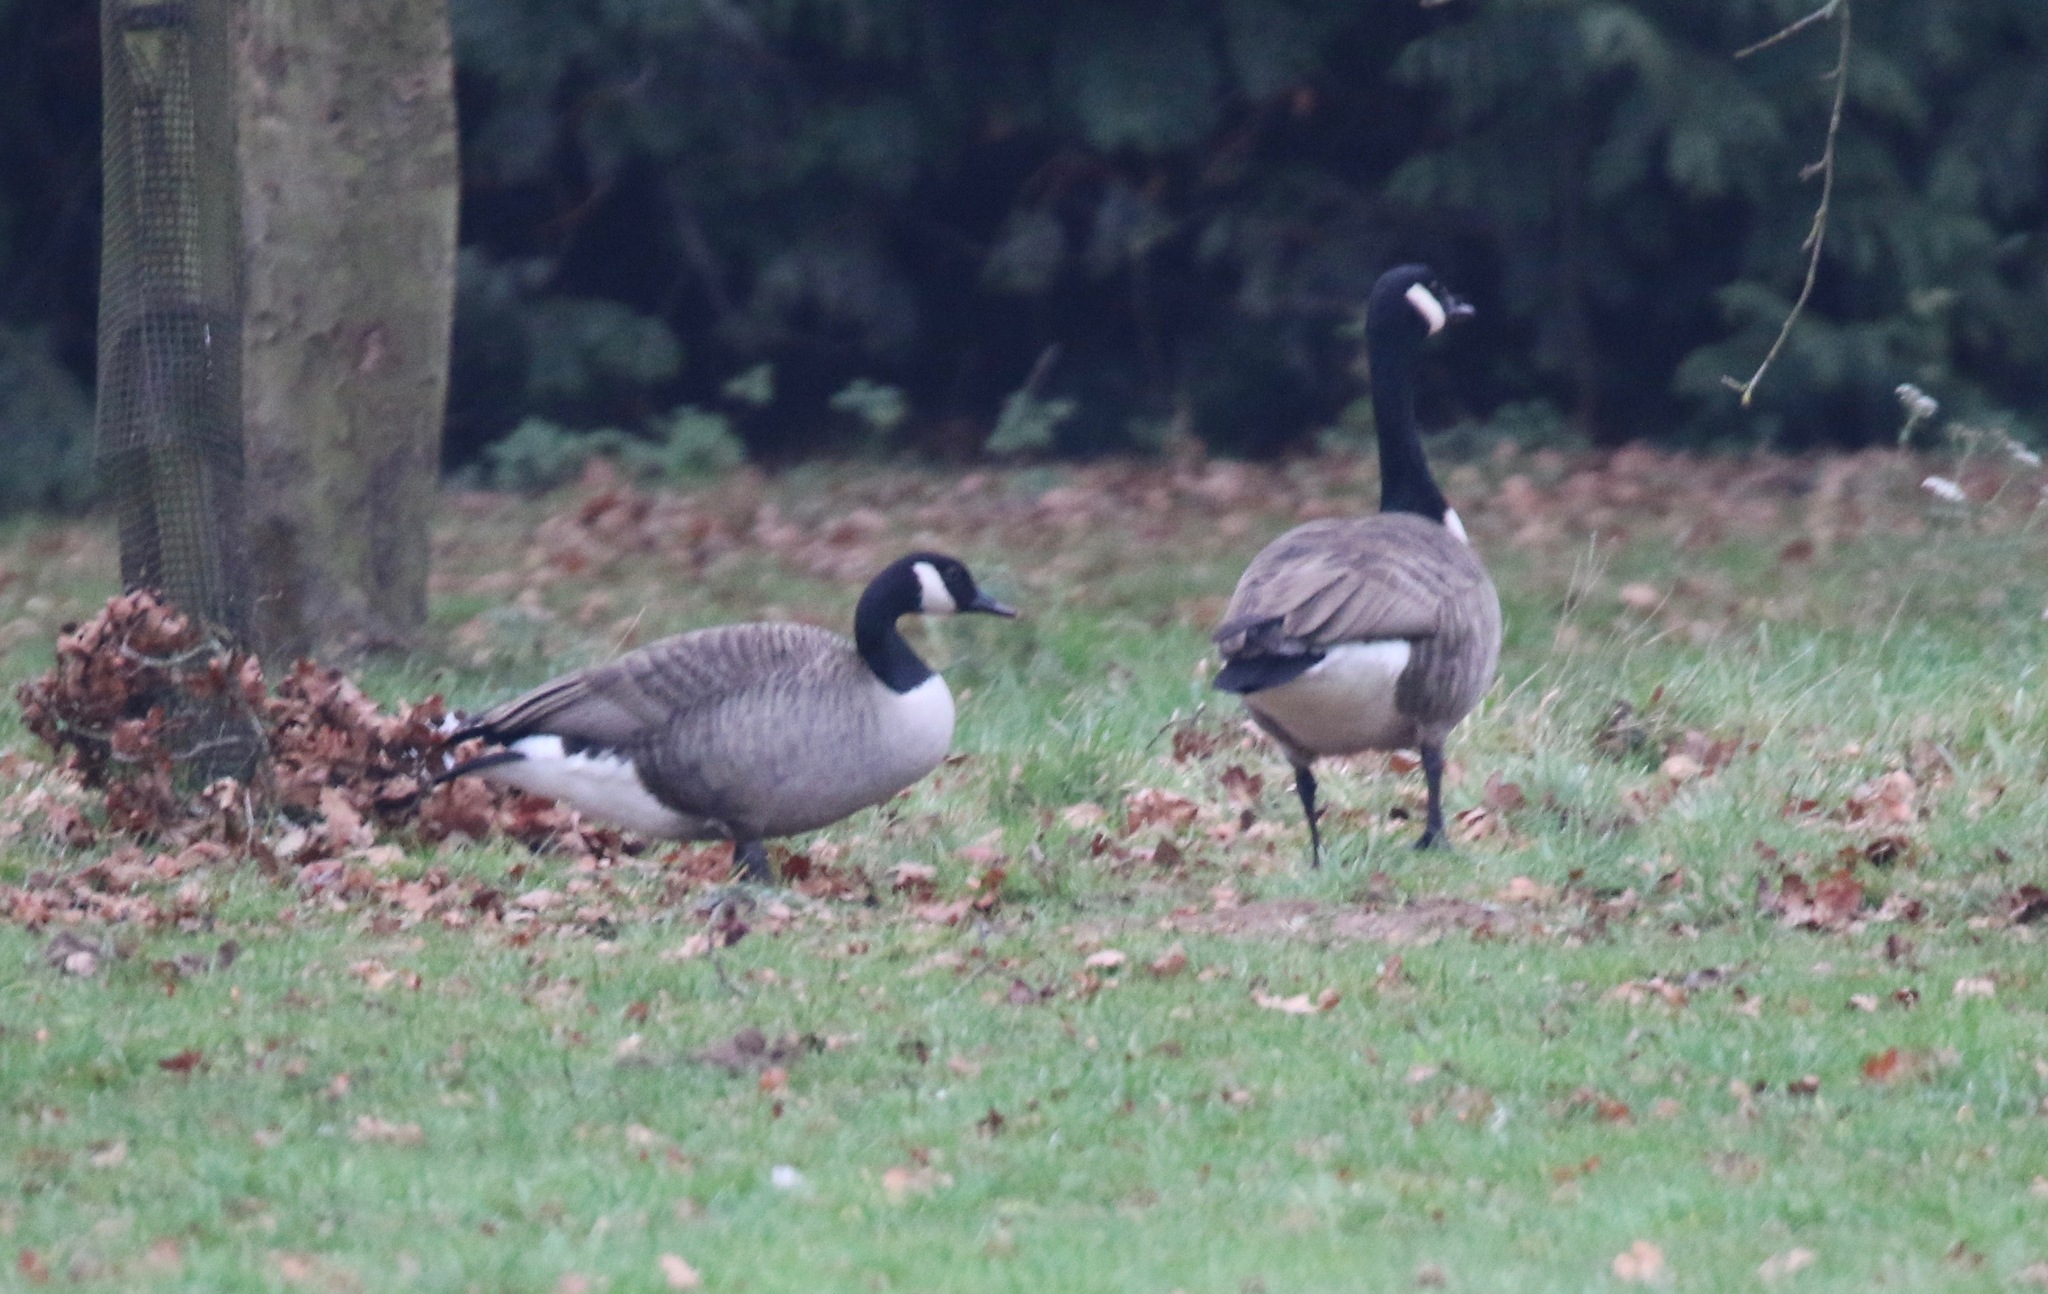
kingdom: Animalia
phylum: Chordata
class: Aves
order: Anseriformes
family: Anatidae
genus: Branta
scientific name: Branta canadensis
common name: Canada goose
